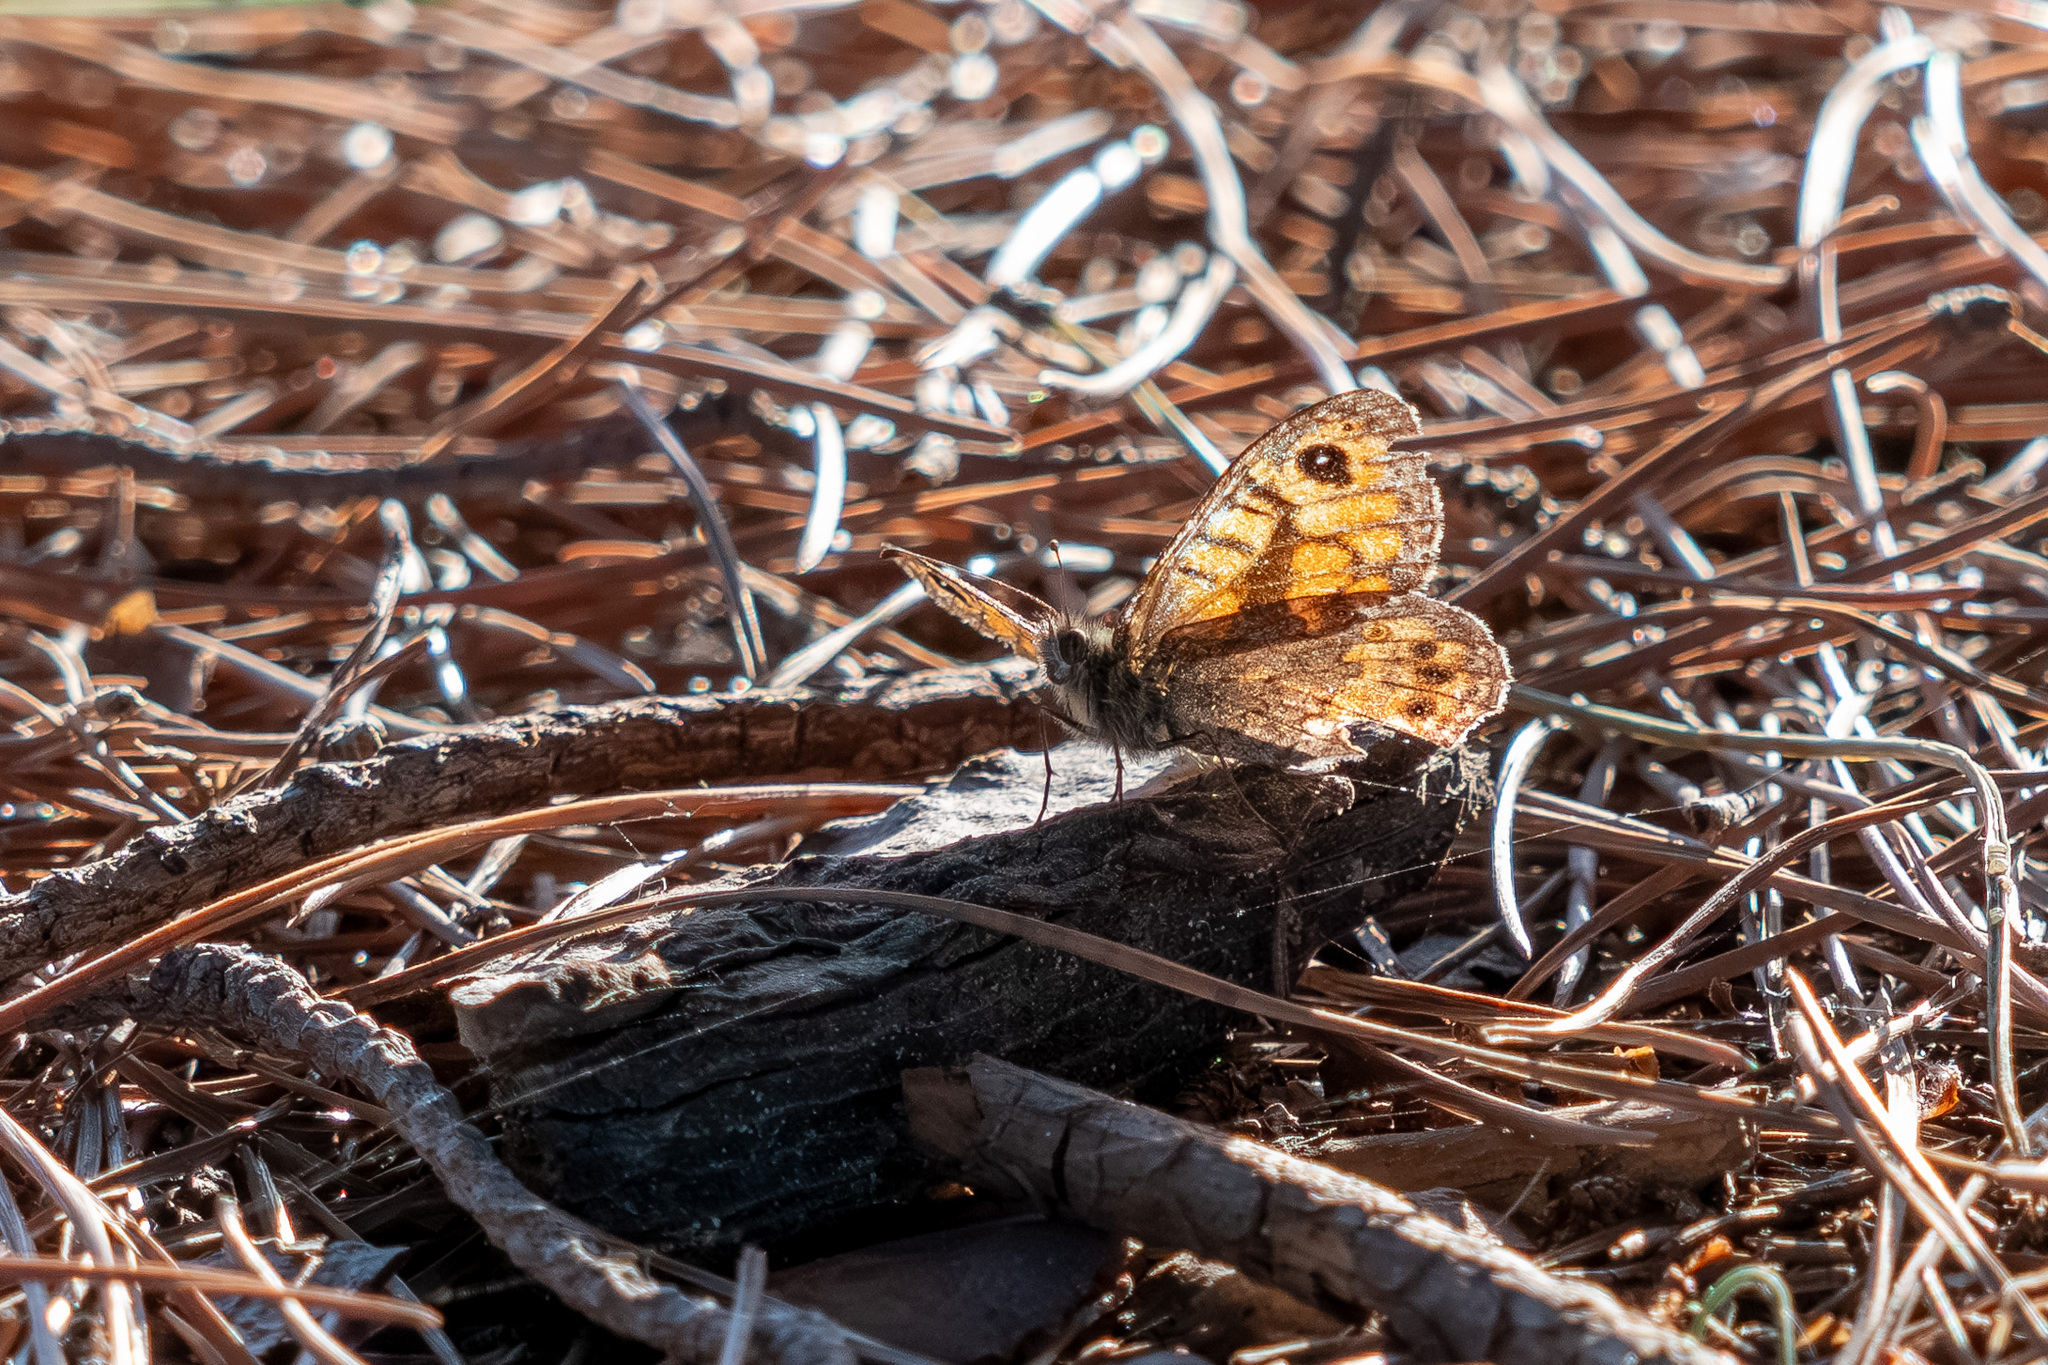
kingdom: Animalia
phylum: Arthropoda
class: Insecta
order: Lepidoptera
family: Nymphalidae
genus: Pararge
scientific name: Pararge Lasiommata megera
